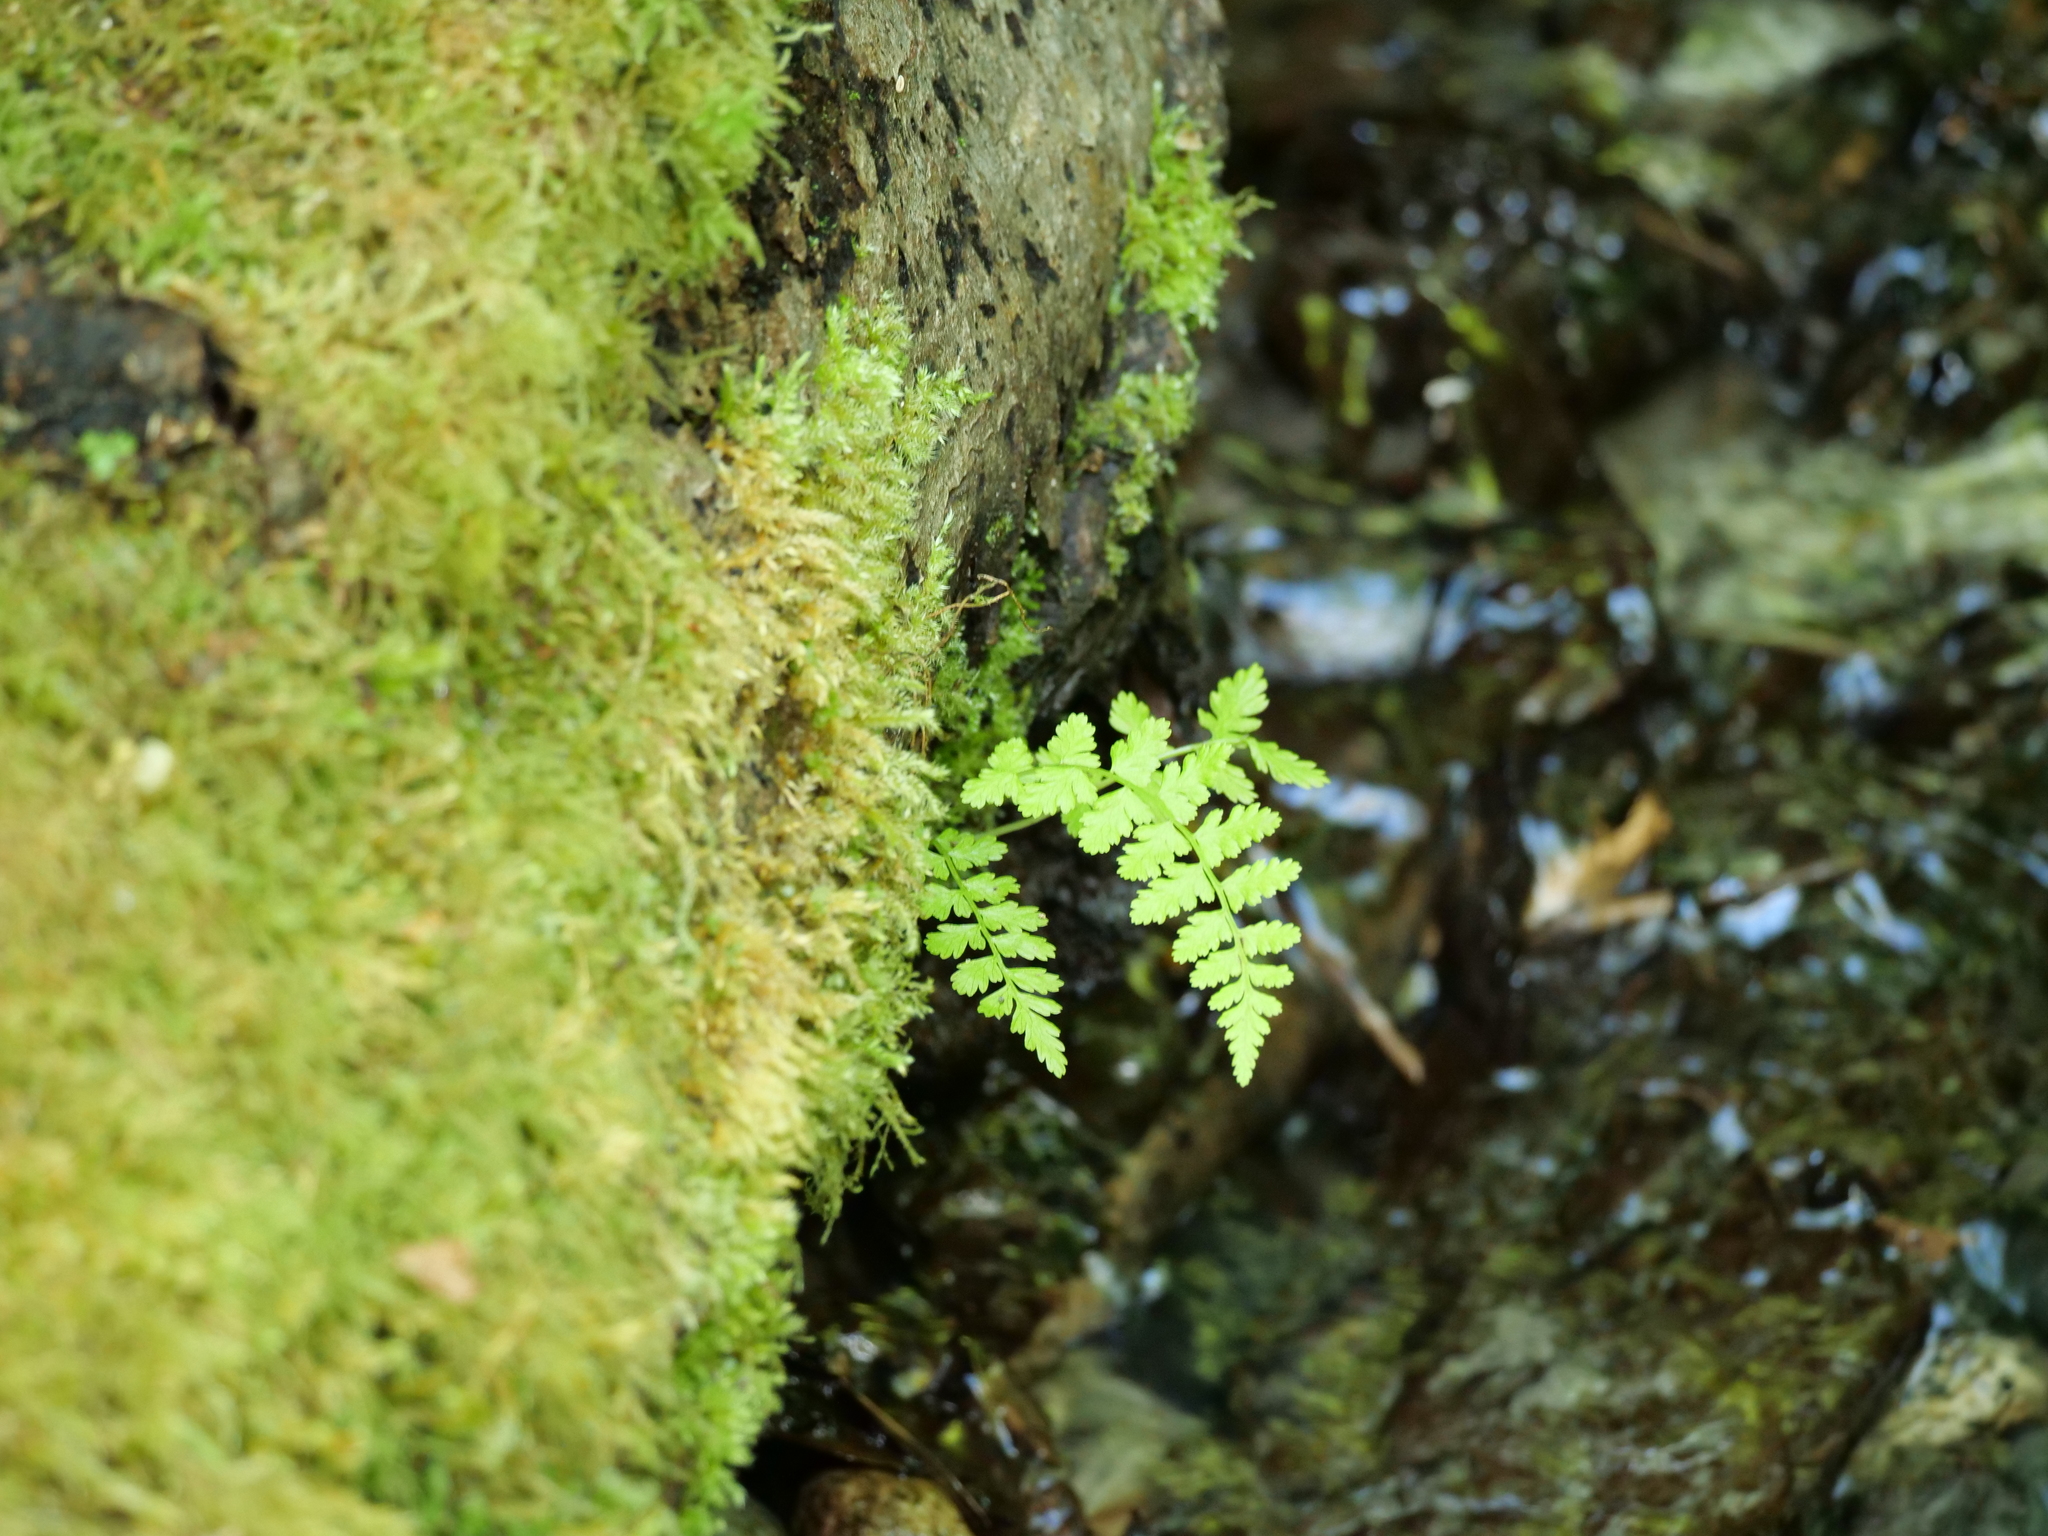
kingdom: Plantae
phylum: Tracheophyta
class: Polypodiopsida
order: Polypodiales
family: Athyriaceae
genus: Athyrium
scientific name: Athyrium filix-femina
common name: Lady fern
